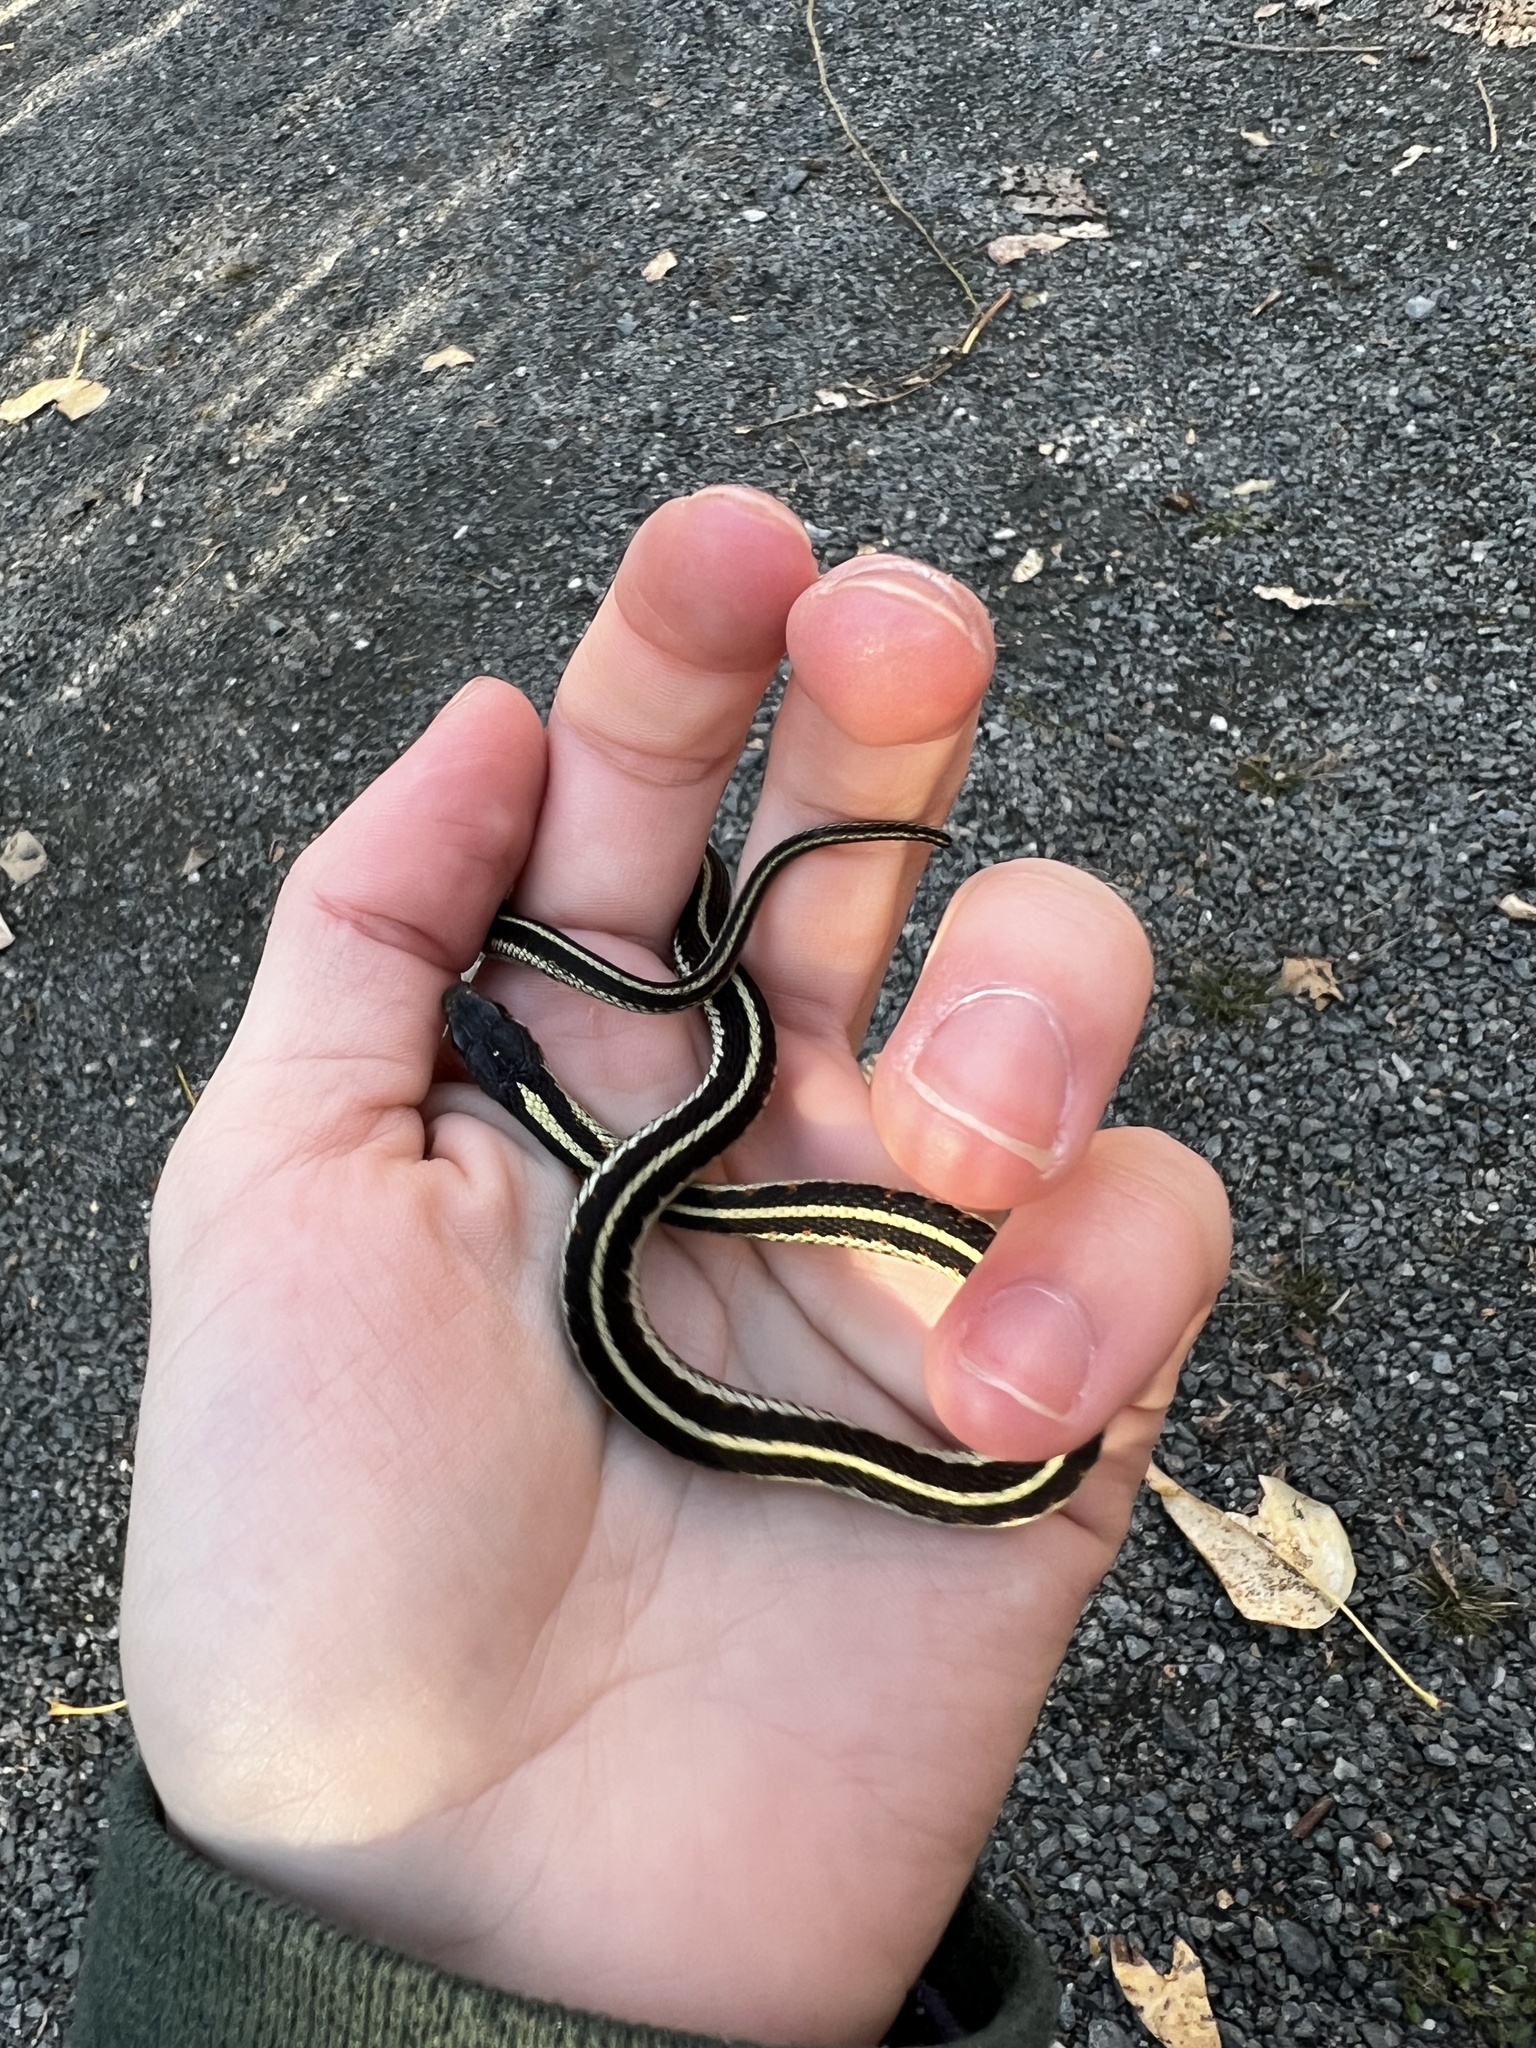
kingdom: Animalia
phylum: Chordata
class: Squamata
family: Colubridae
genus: Thamnophis
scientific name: Thamnophis sirtalis
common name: Common garter snake
